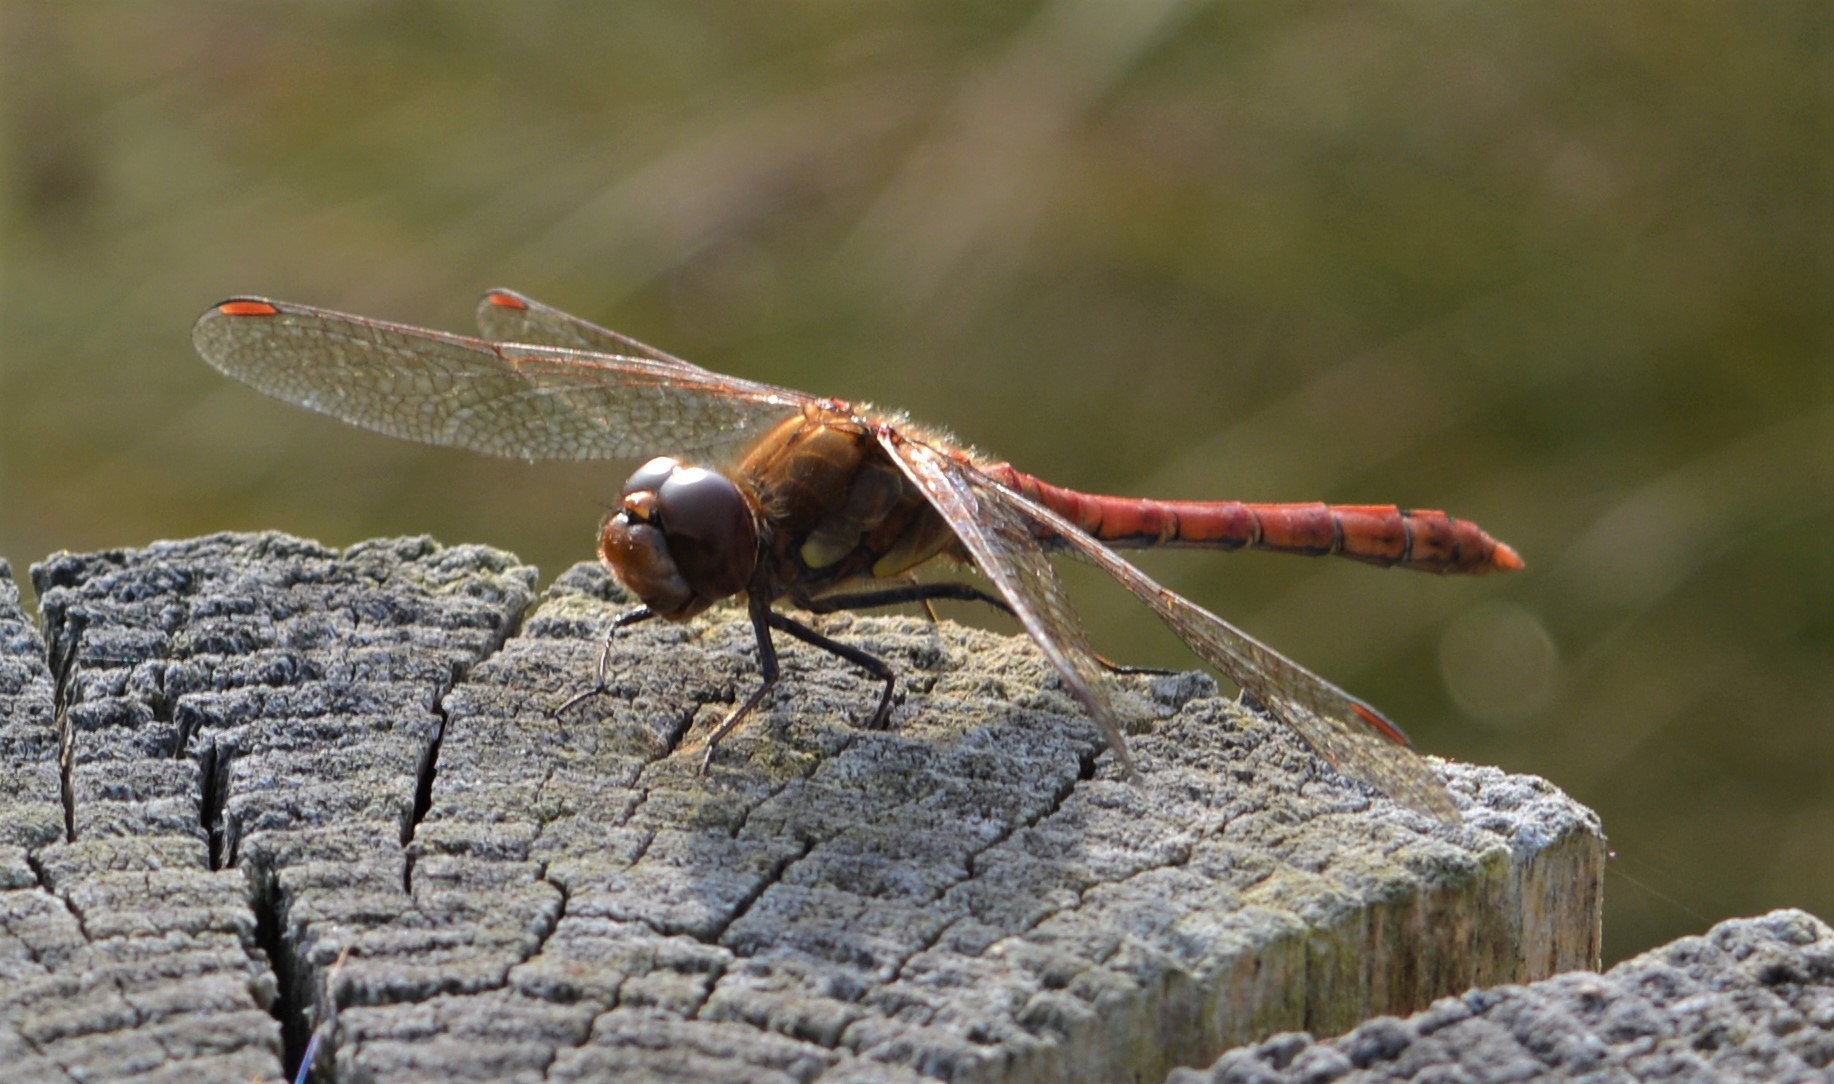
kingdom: Animalia
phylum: Arthropoda
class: Insecta
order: Odonata
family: Libellulidae
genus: Sympetrum
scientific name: Sympetrum striolatum
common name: Common darter
